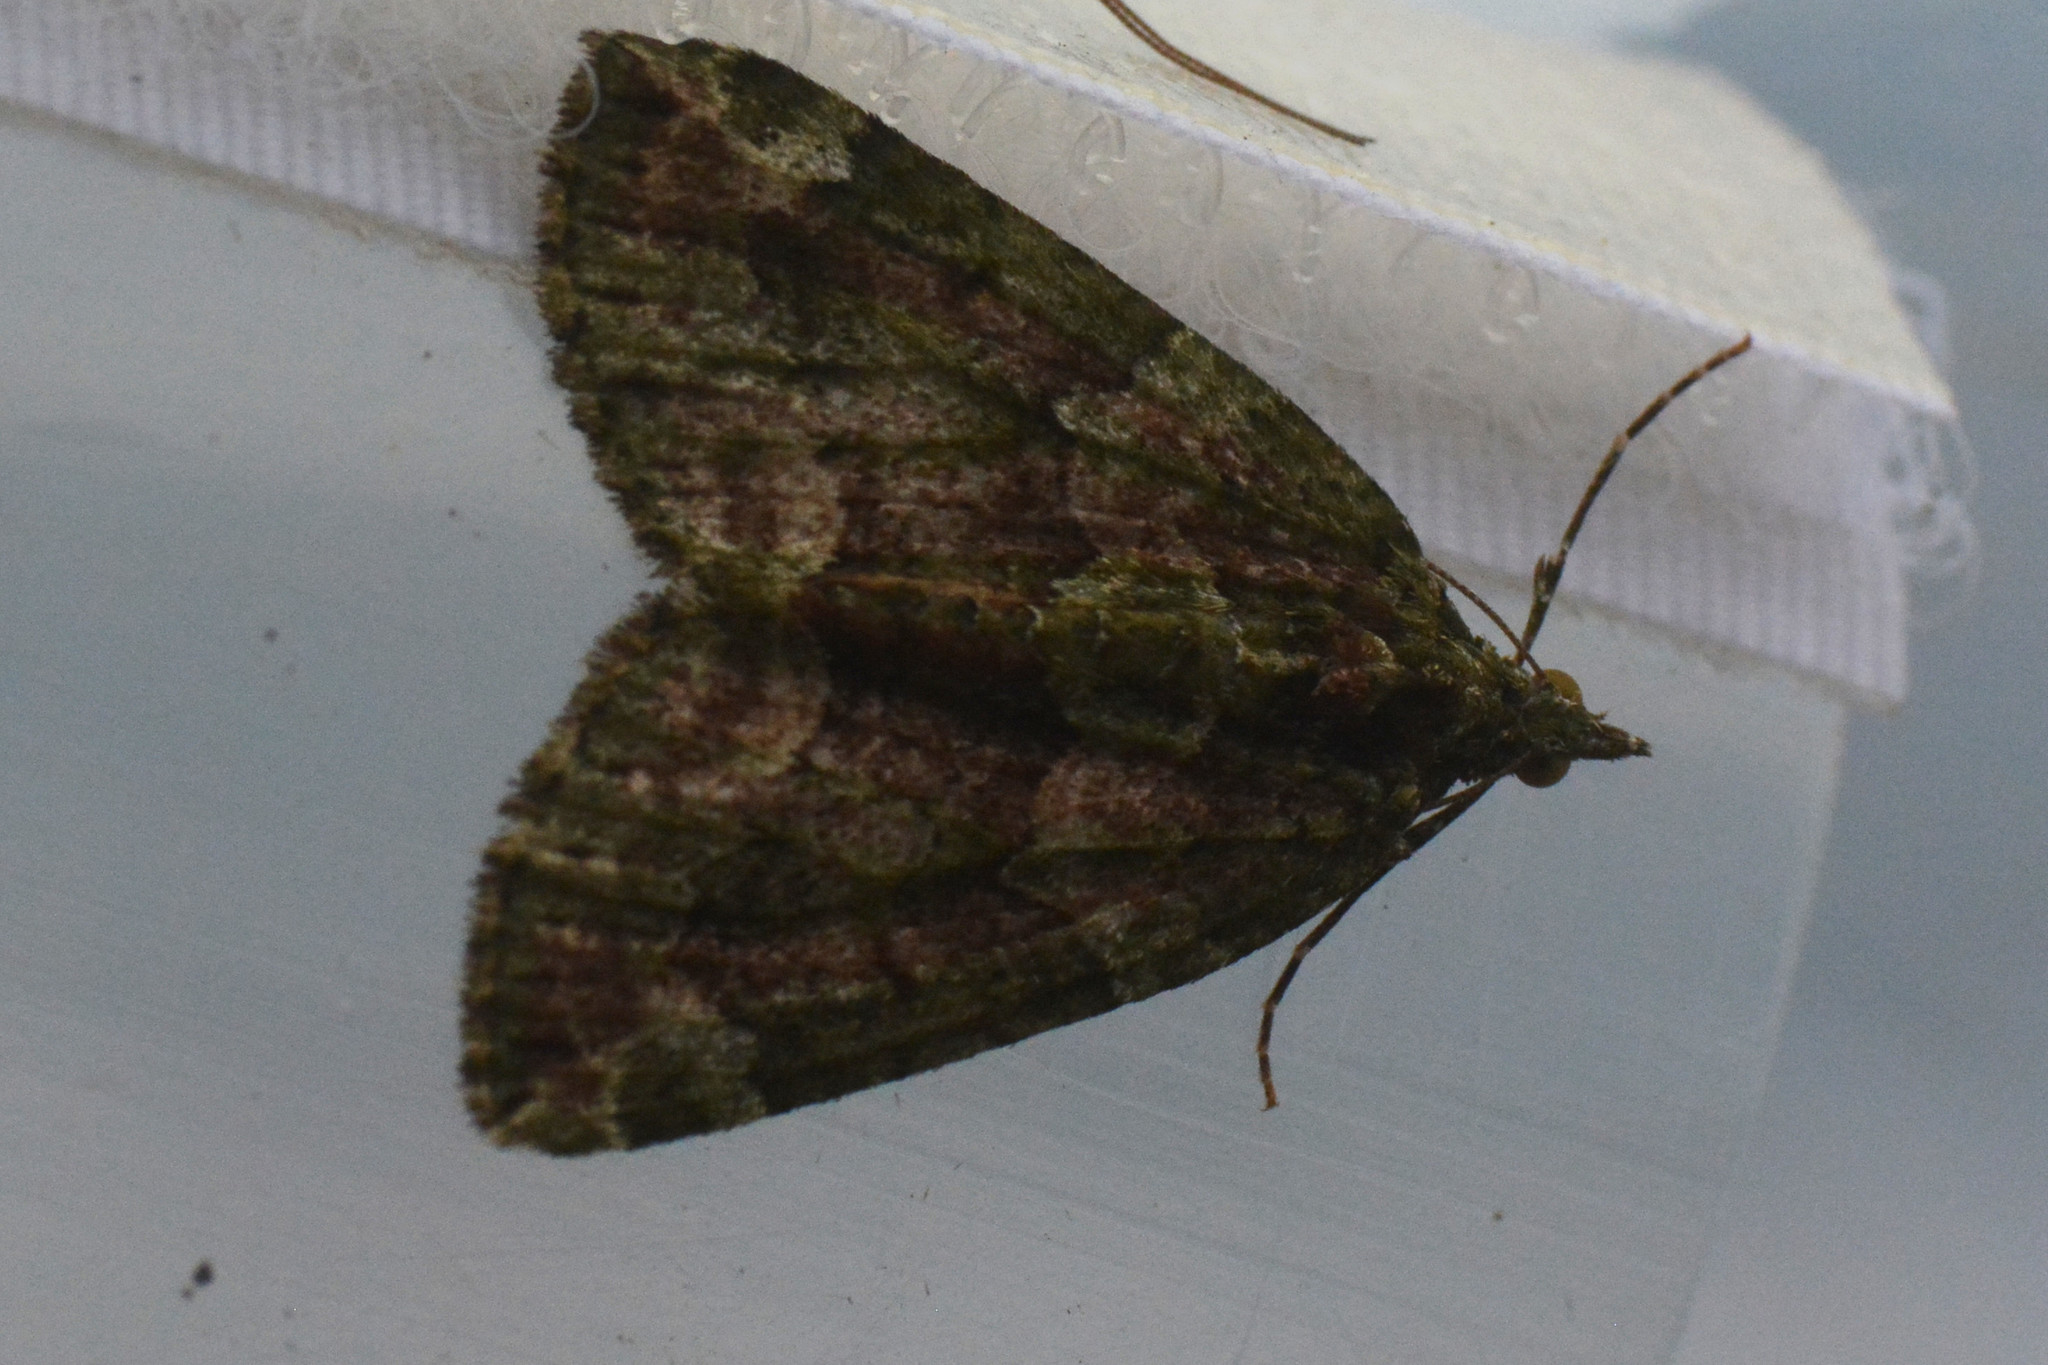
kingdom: Animalia
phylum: Arthropoda
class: Insecta
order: Lepidoptera
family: Geometridae
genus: Chloroclysta
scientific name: Chloroclysta siterata
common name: Red-green carpet
